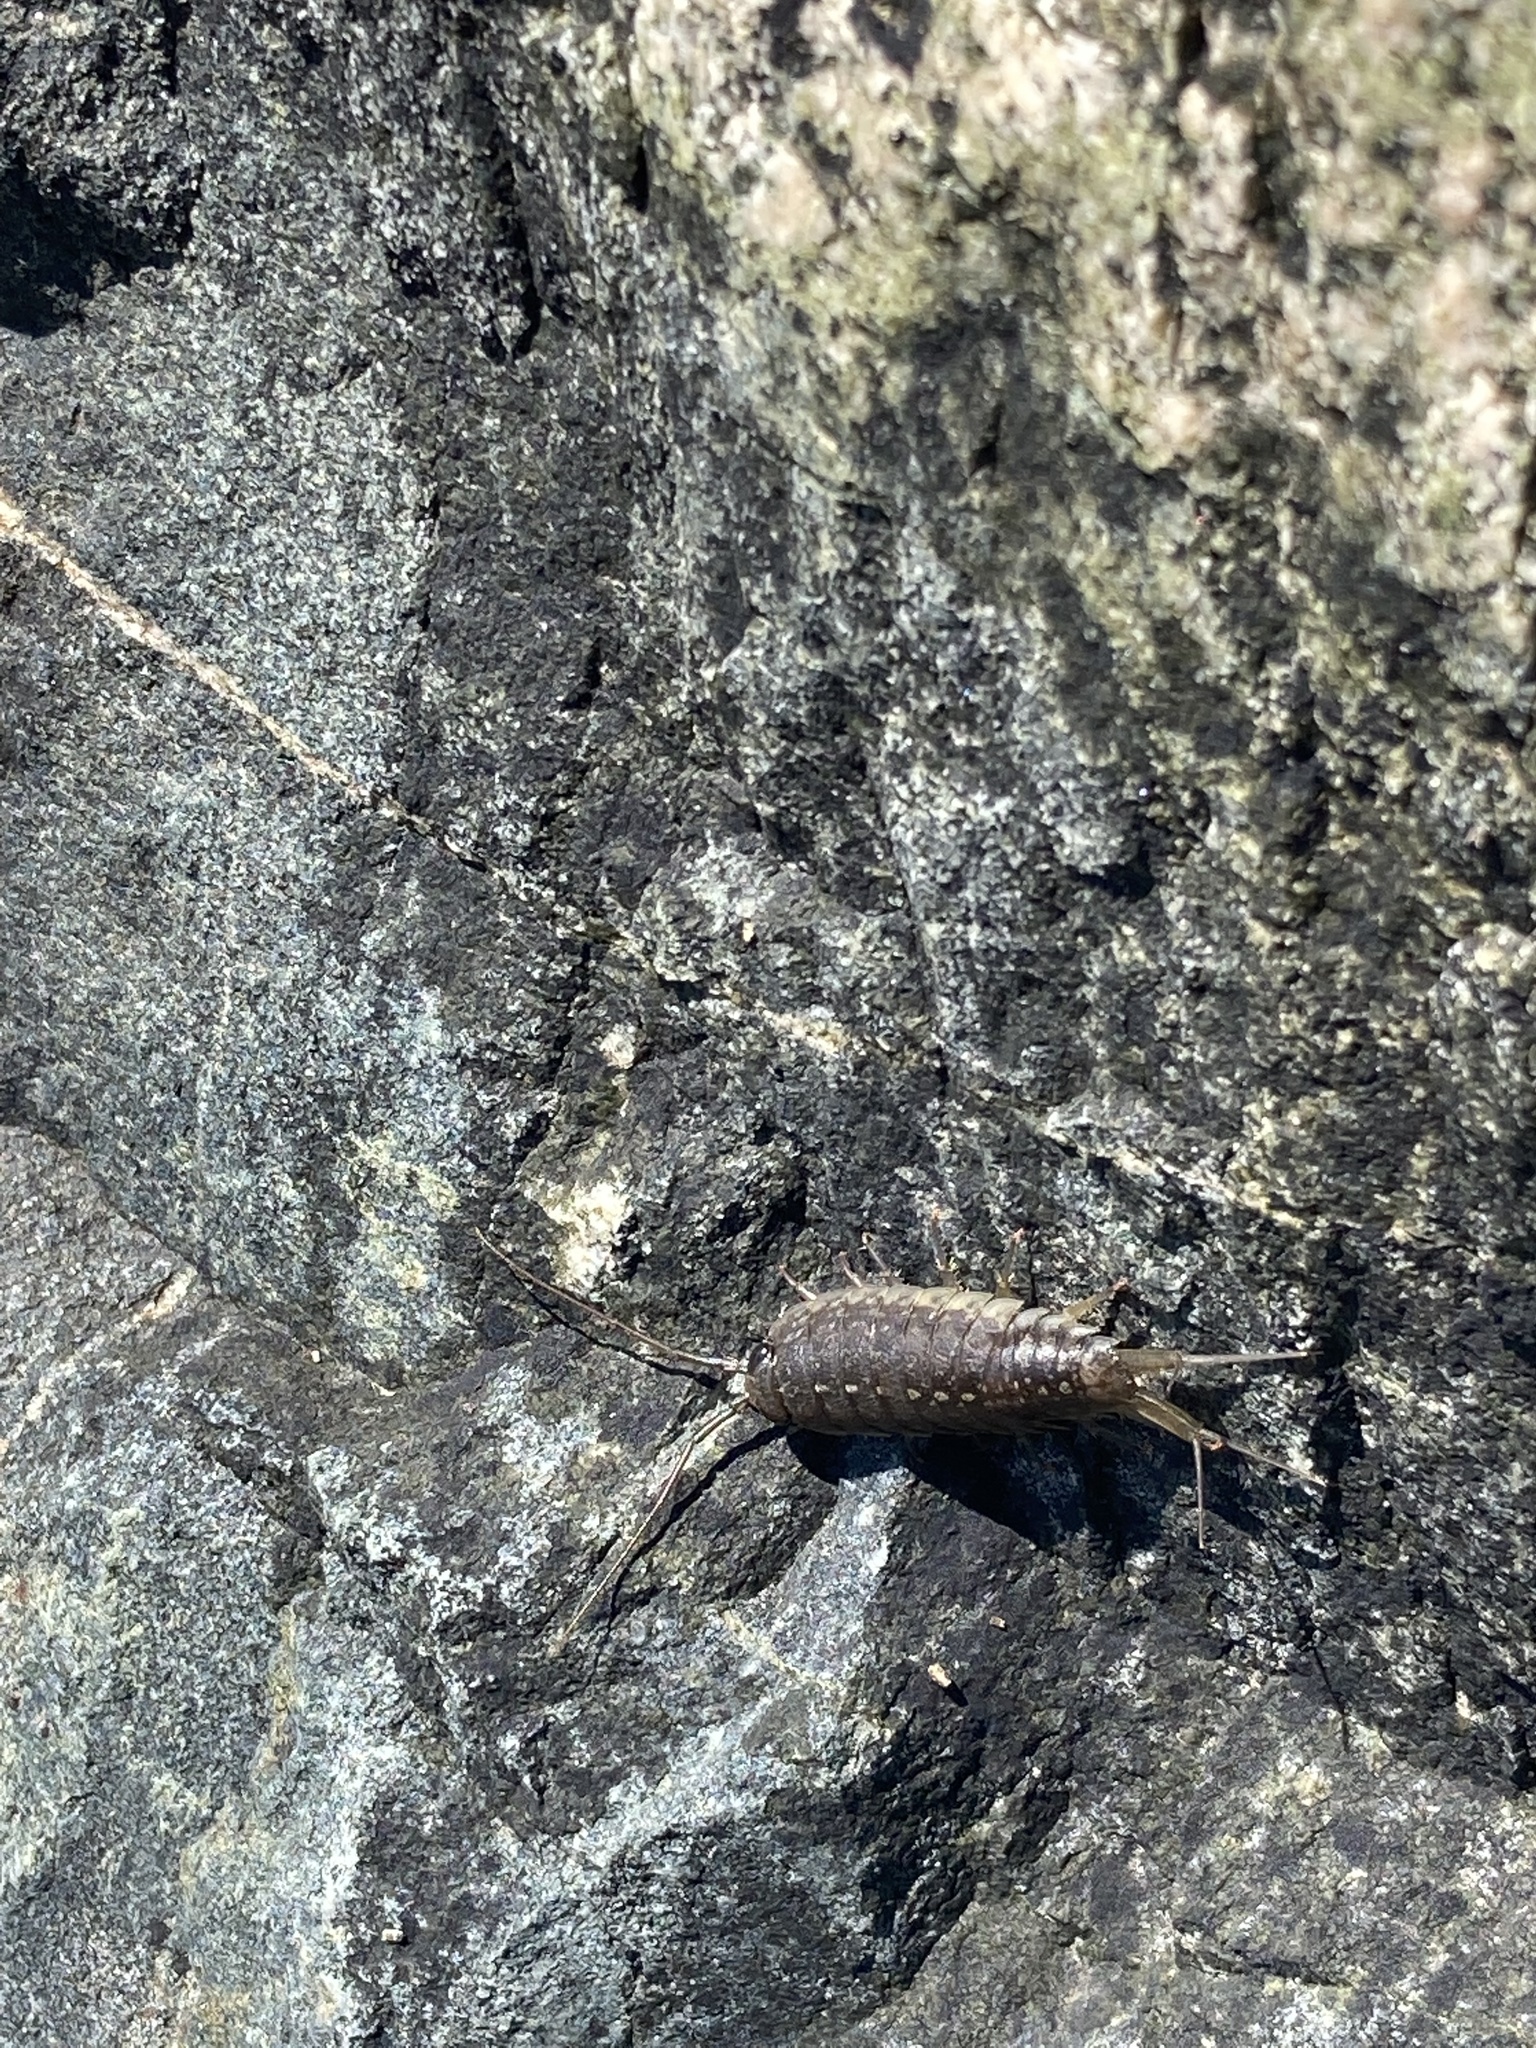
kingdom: Animalia
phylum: Arthropoda
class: Malacostraca
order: Isopoda
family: Ligiidae
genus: Ligia
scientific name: Ligia occidentalis
